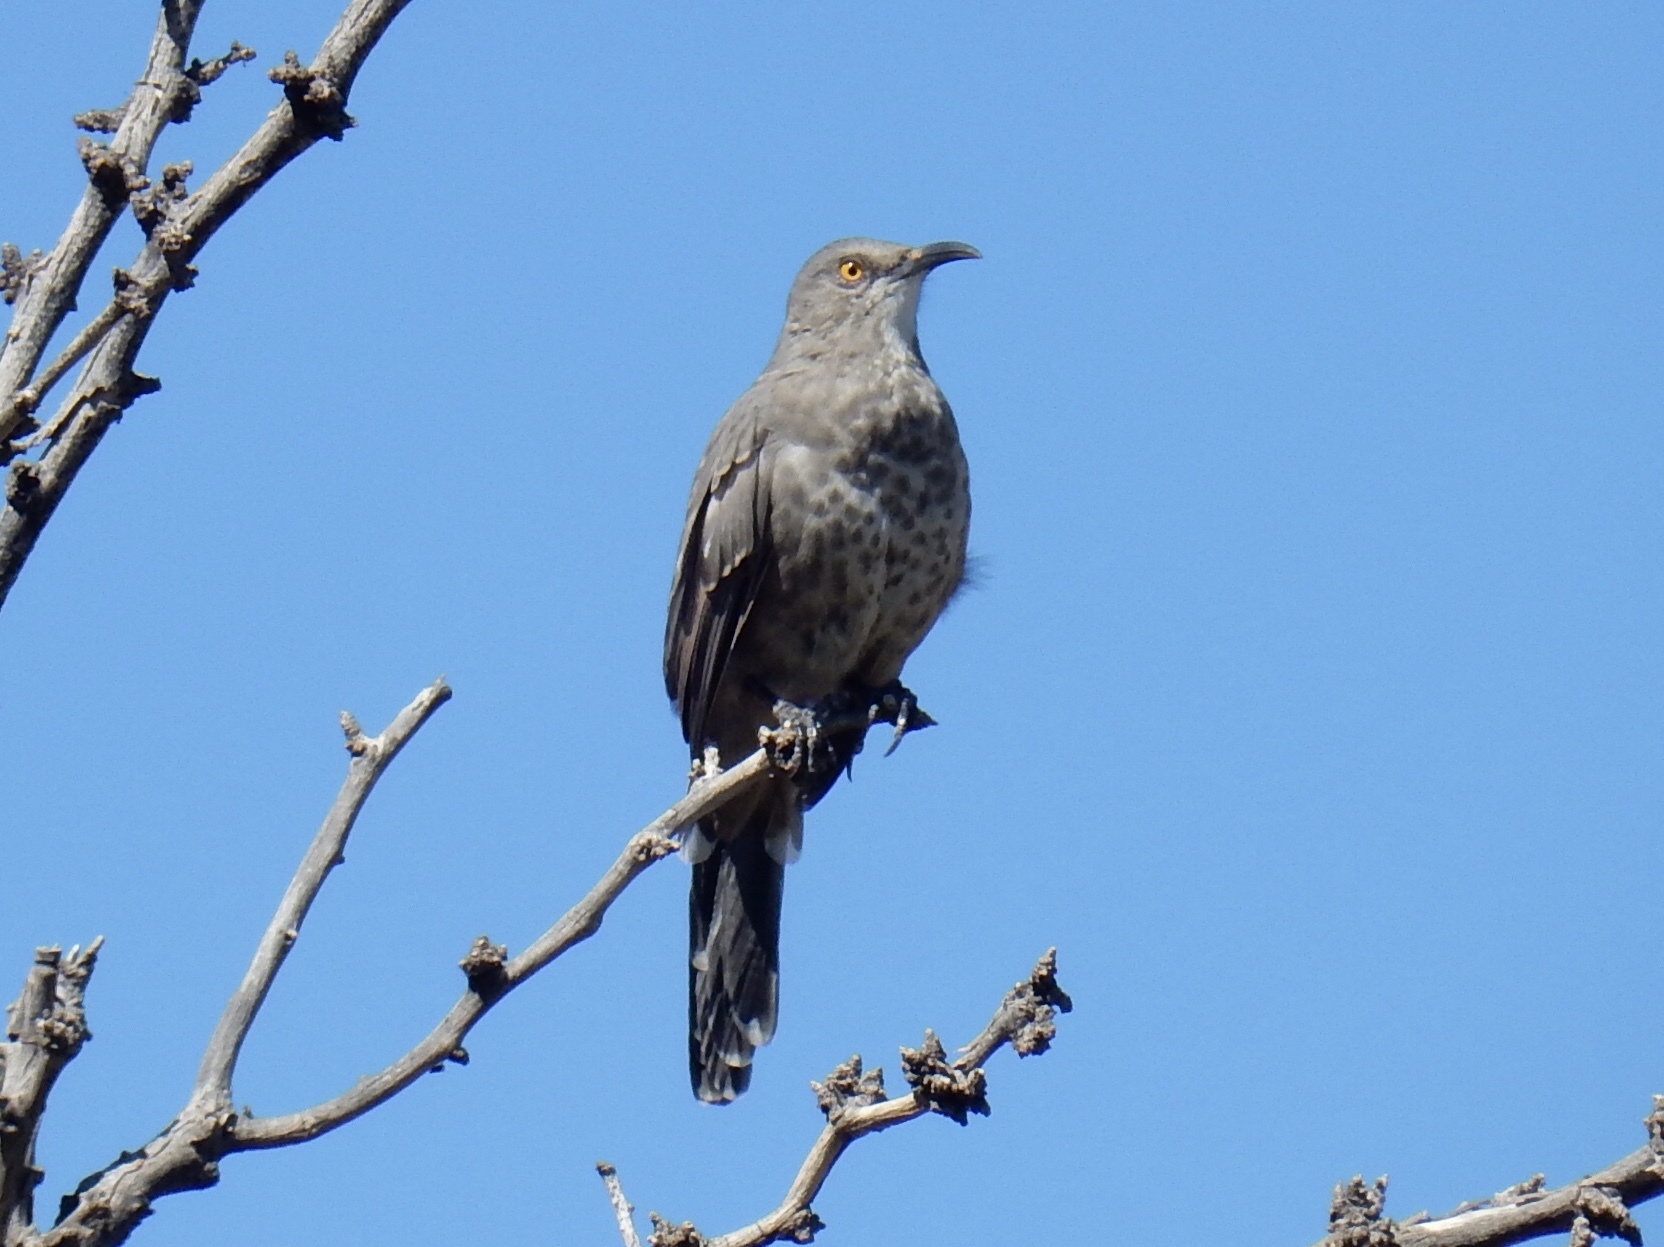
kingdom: Animalia
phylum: Chordata
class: Aves
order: Passeriformes
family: Mimidae
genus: Toxostoma
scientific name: Toxostoma curvirostre
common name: Curve-billed thrasher
